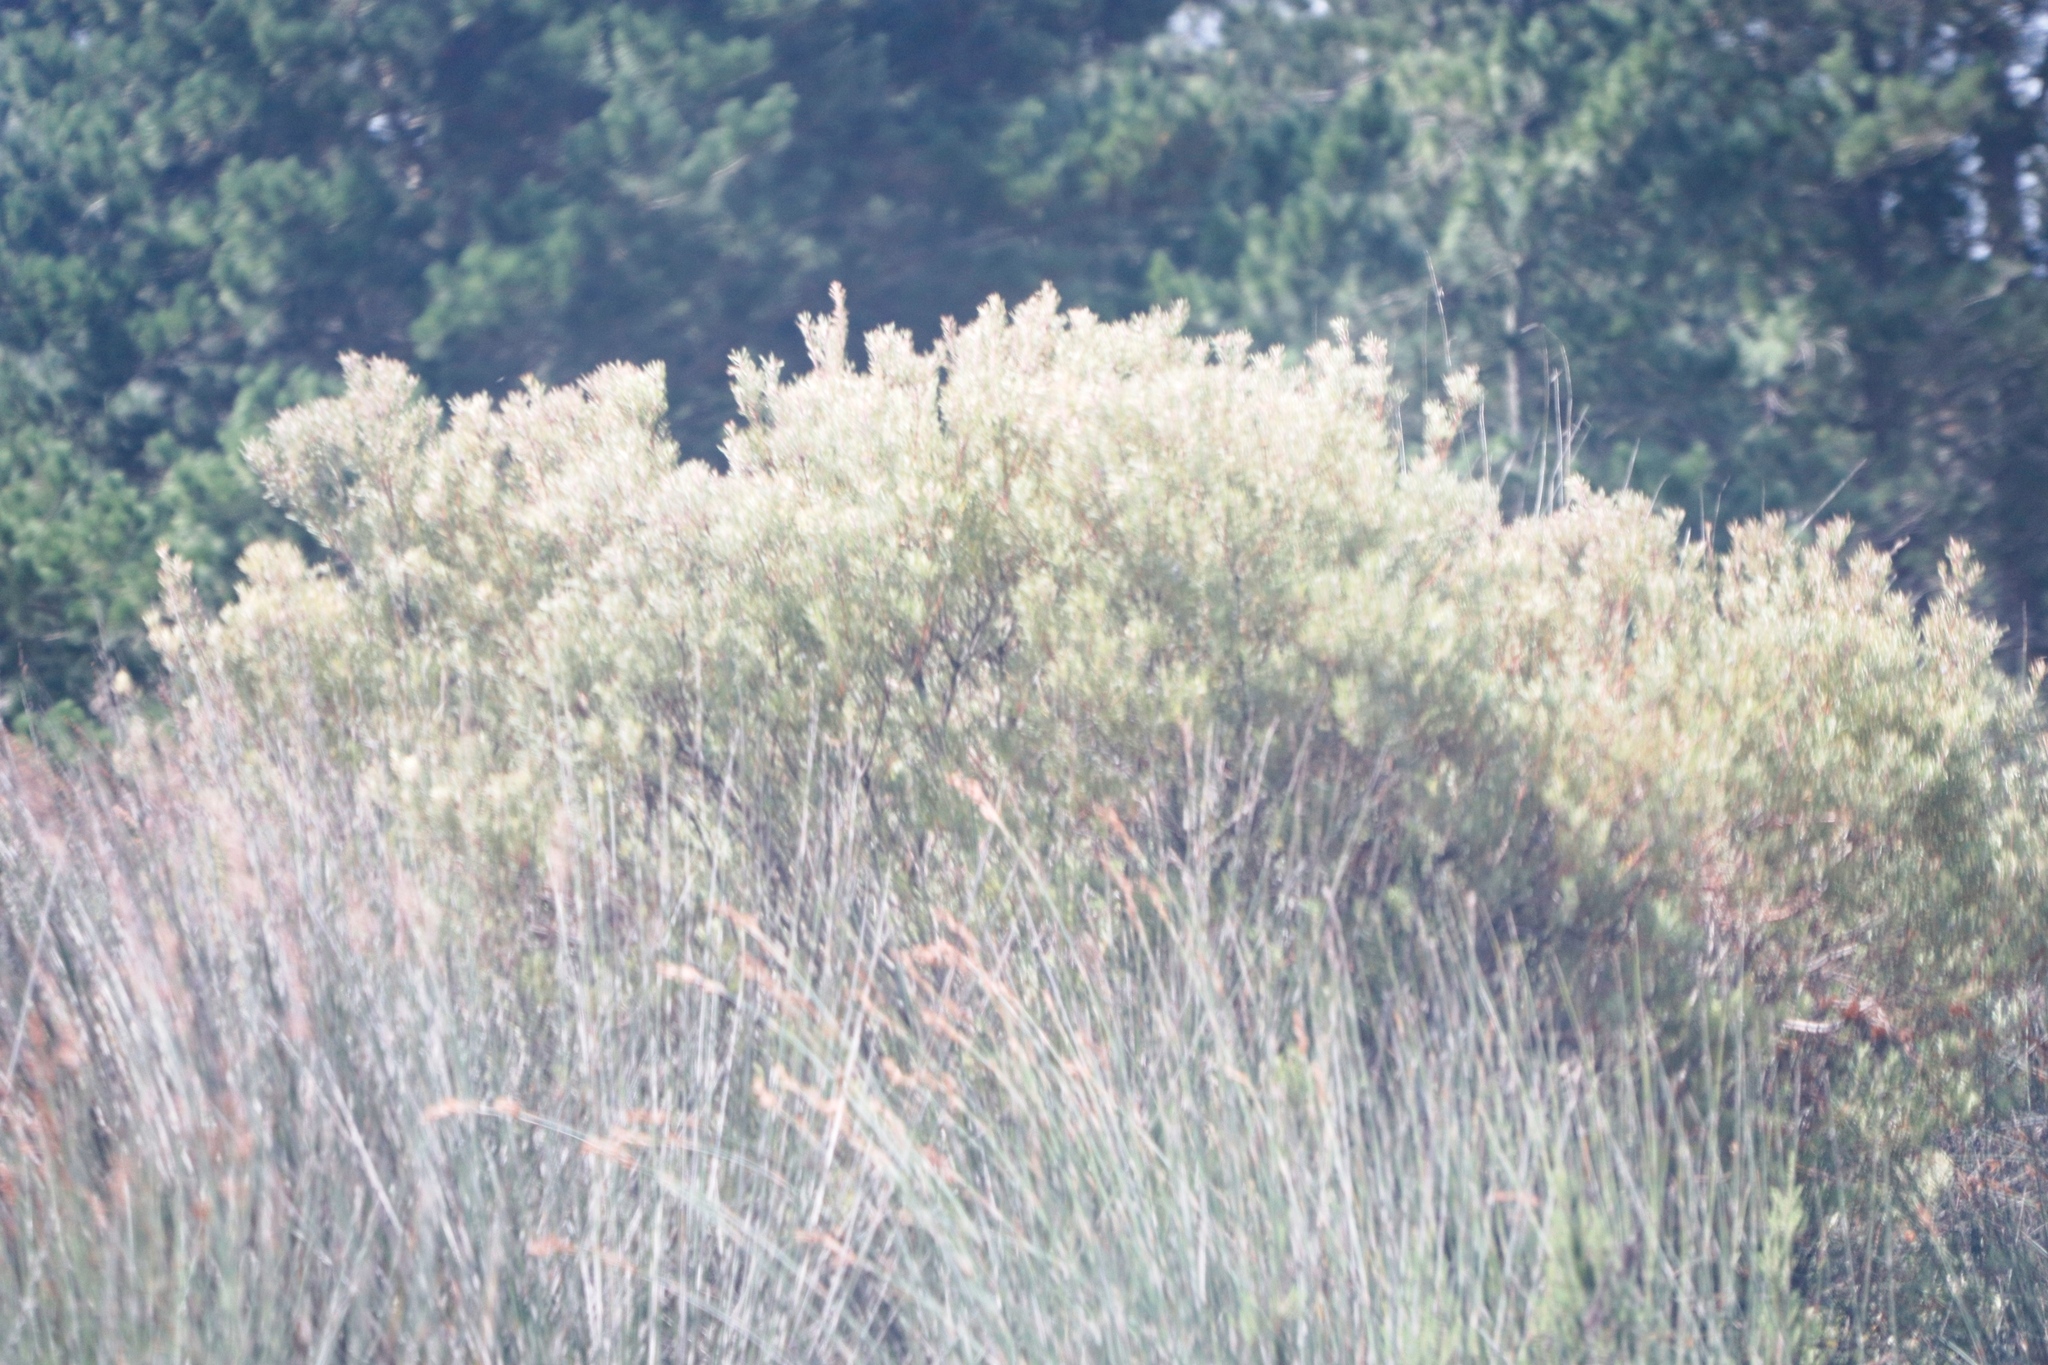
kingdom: Plantae
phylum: Tracheophyta
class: Magnoliopsida
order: Proteales
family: Proteaceae
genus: Leucadendron
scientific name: Leucadendron galpinii
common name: Hairless conebush
